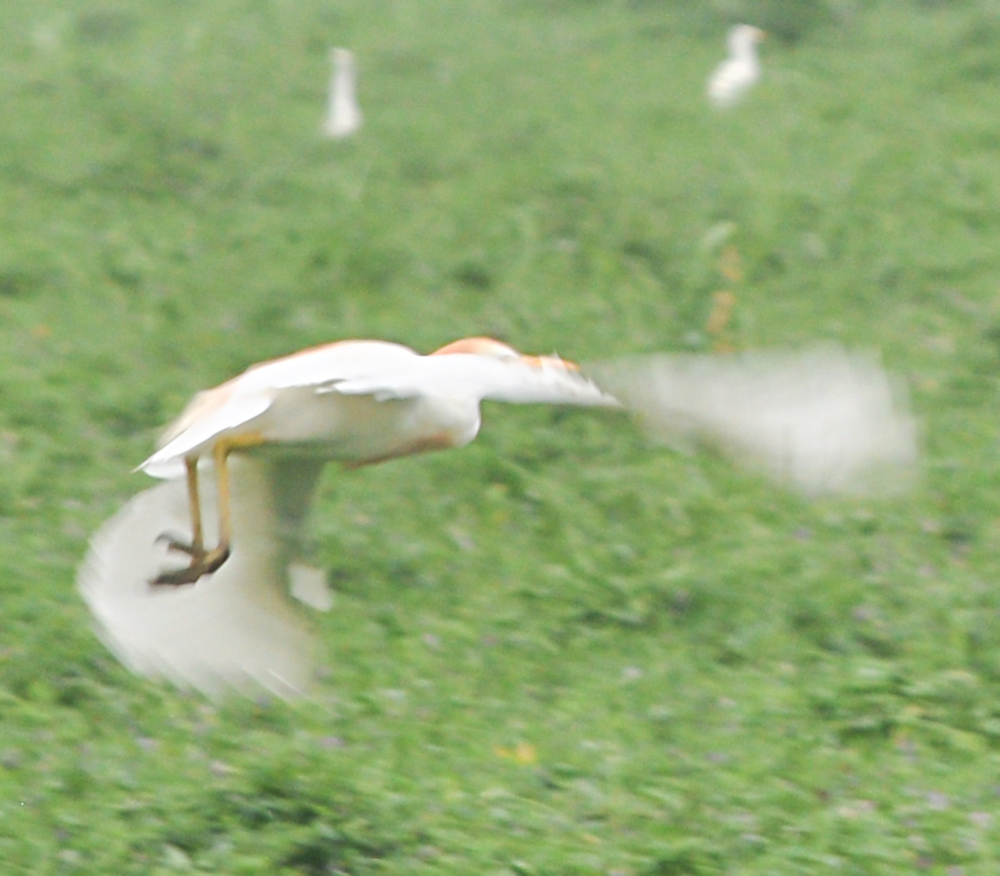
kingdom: Animalia
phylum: Chordata
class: Aves
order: Pelecaniformes
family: Ardeidae
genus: Bubulcus
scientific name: Bubulcus ibis
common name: Cattle egret
